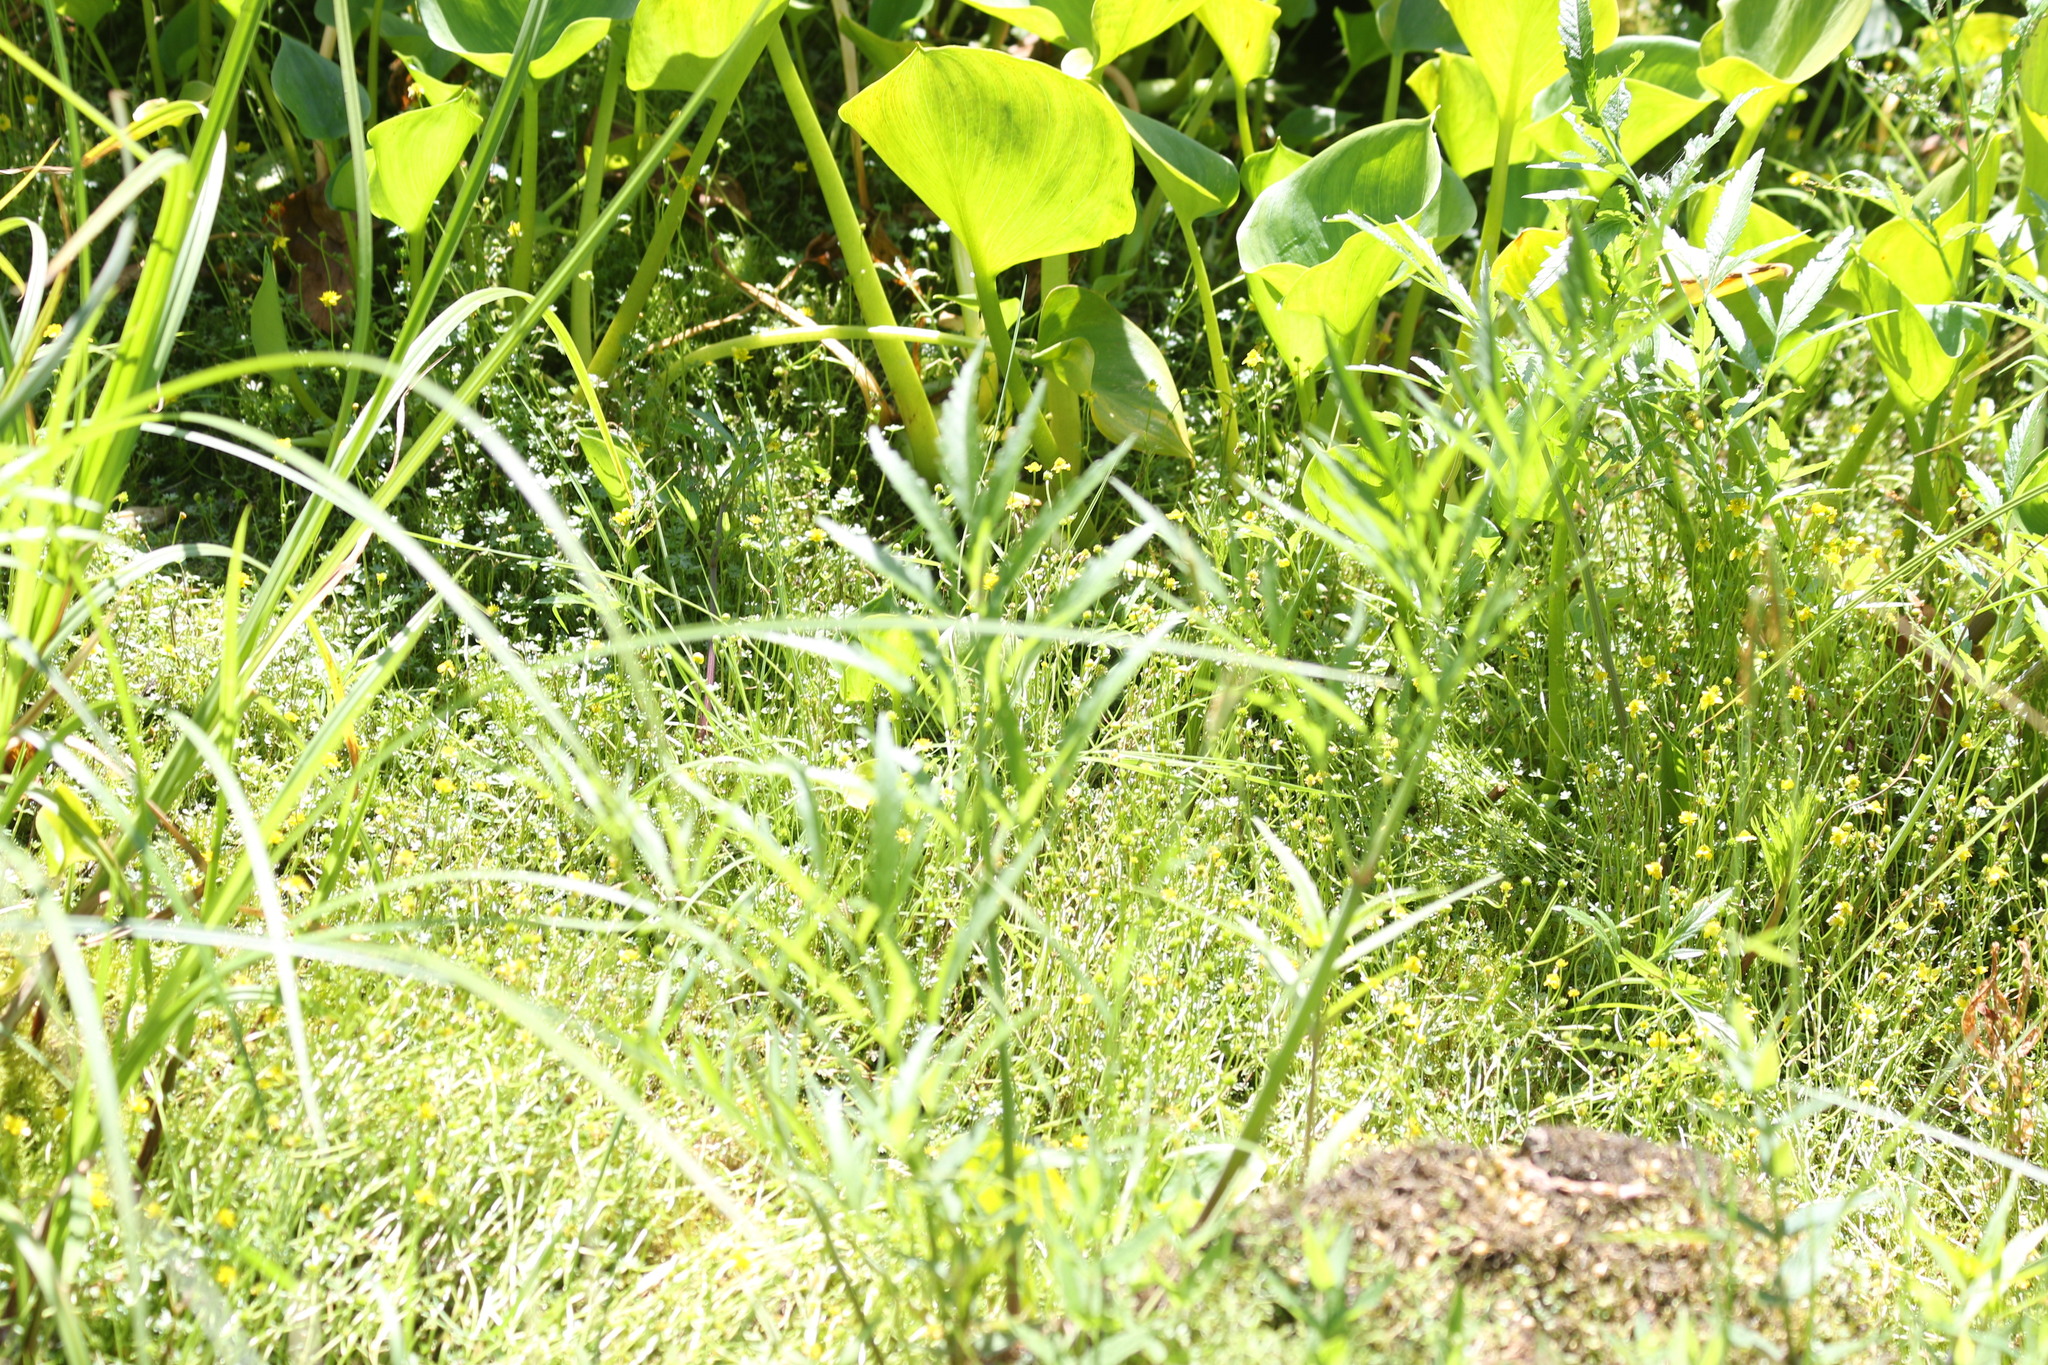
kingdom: Plantae
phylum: Tracheophyta
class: Liliopsida
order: Alismatales
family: Araceae
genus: Calla
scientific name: Calla palustris
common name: Bog arum
